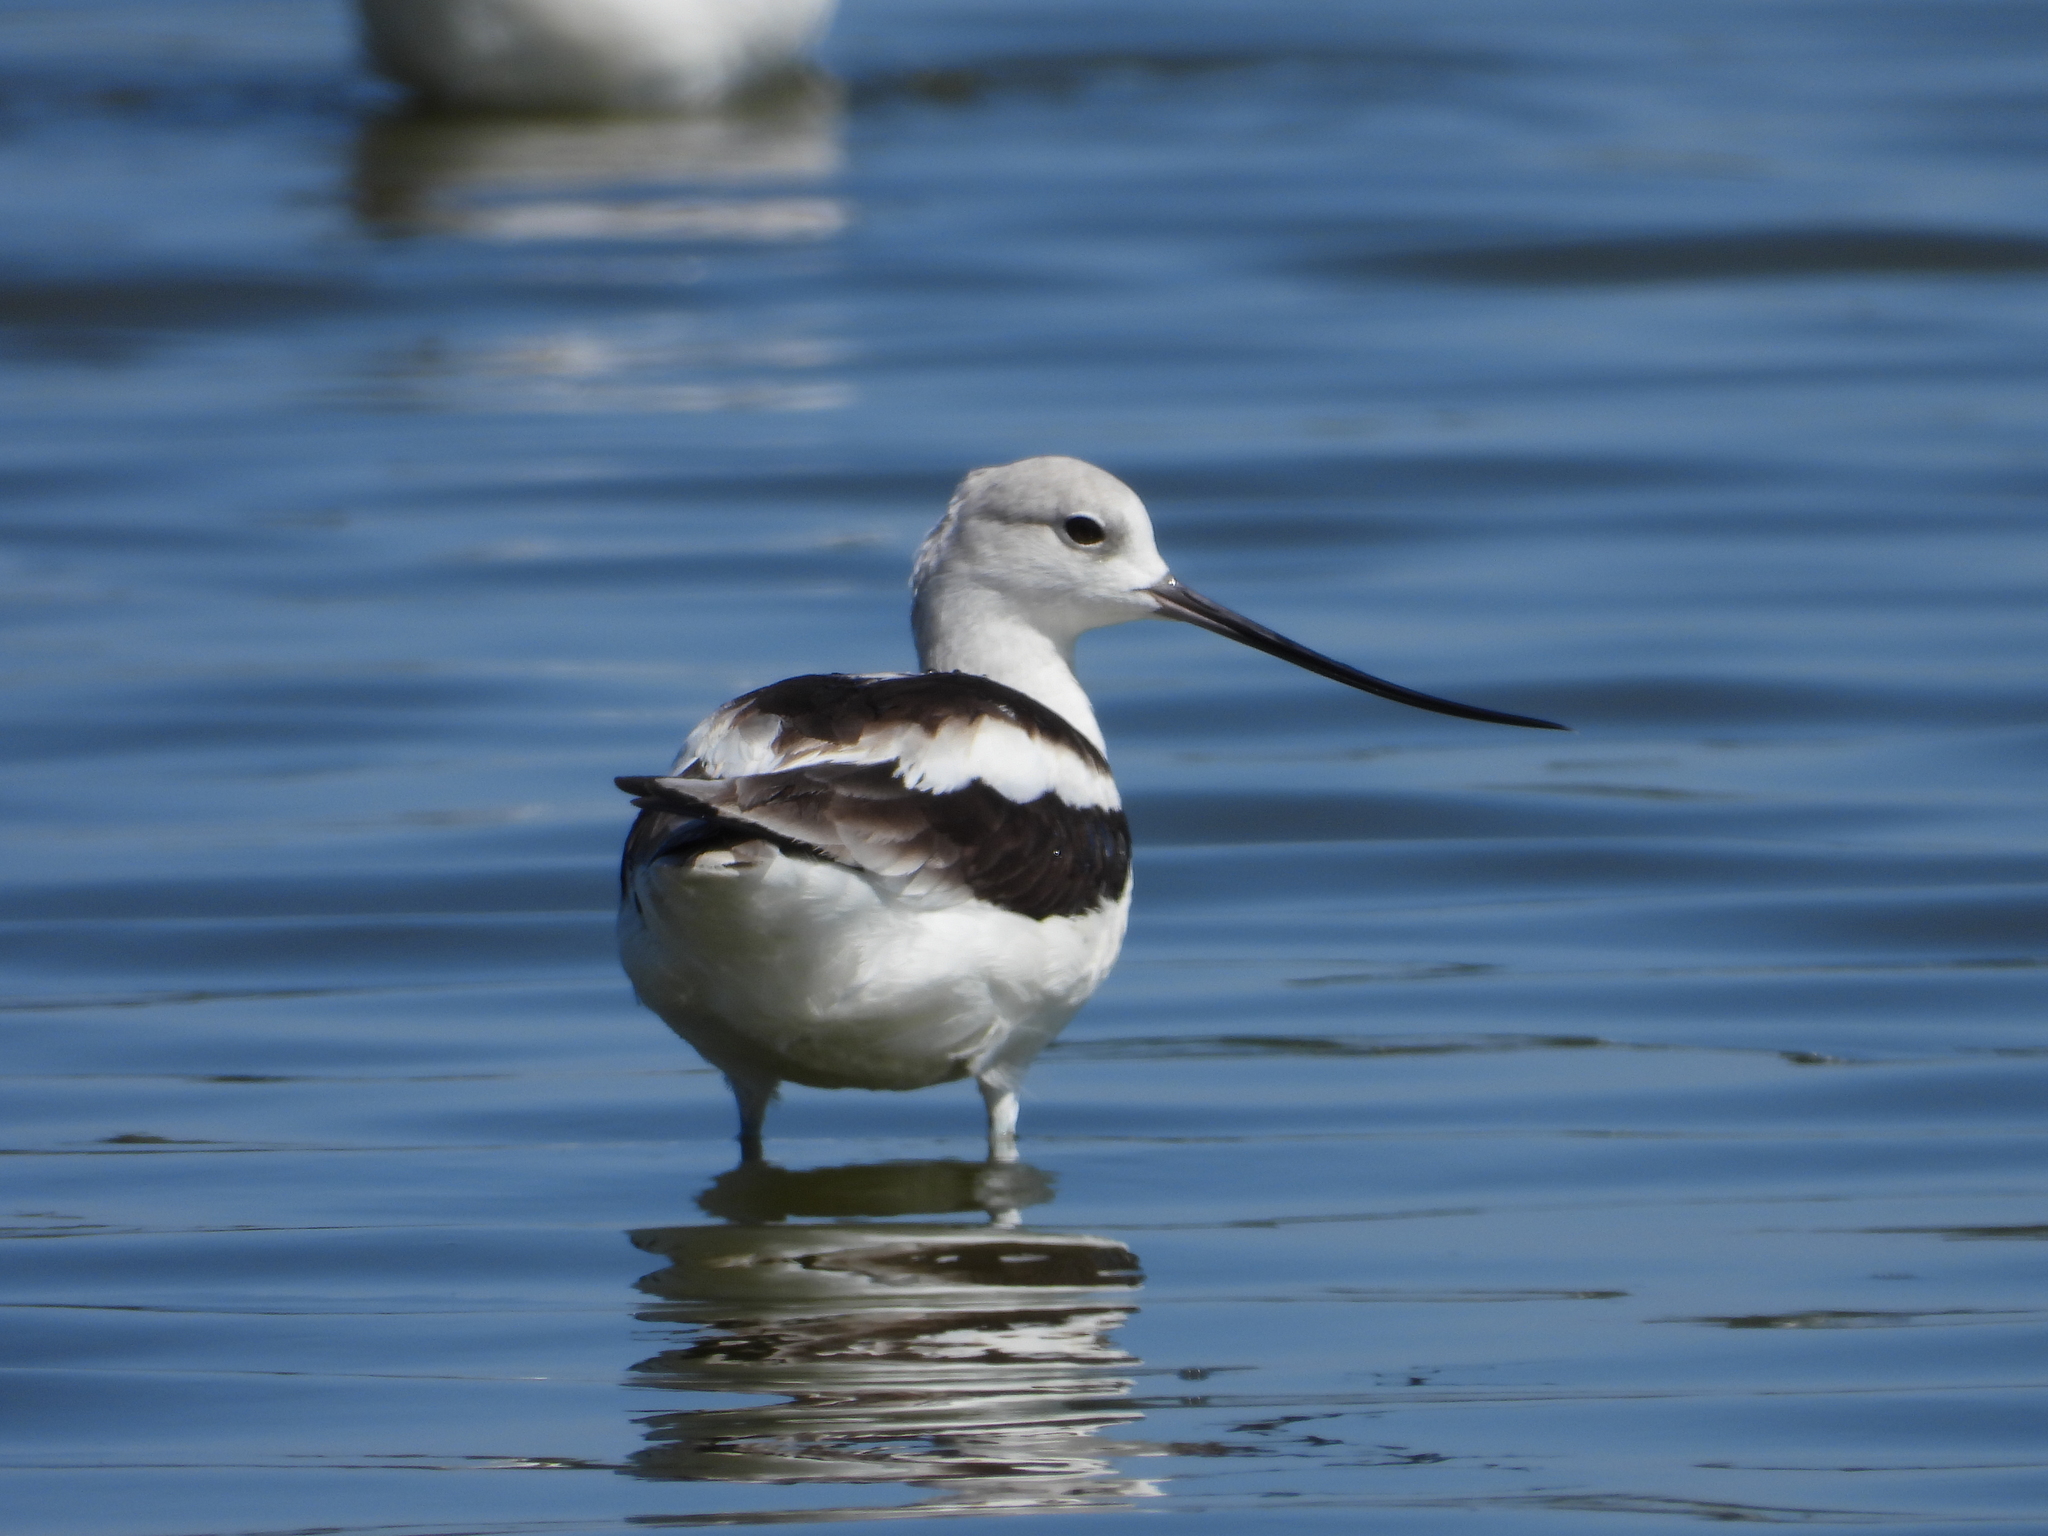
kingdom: Animalia
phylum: Chordata
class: Aves
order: Charadriiformes
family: Recurvirostridae
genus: Recurvirostra
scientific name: Recurvirostra americana
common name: American avocet
